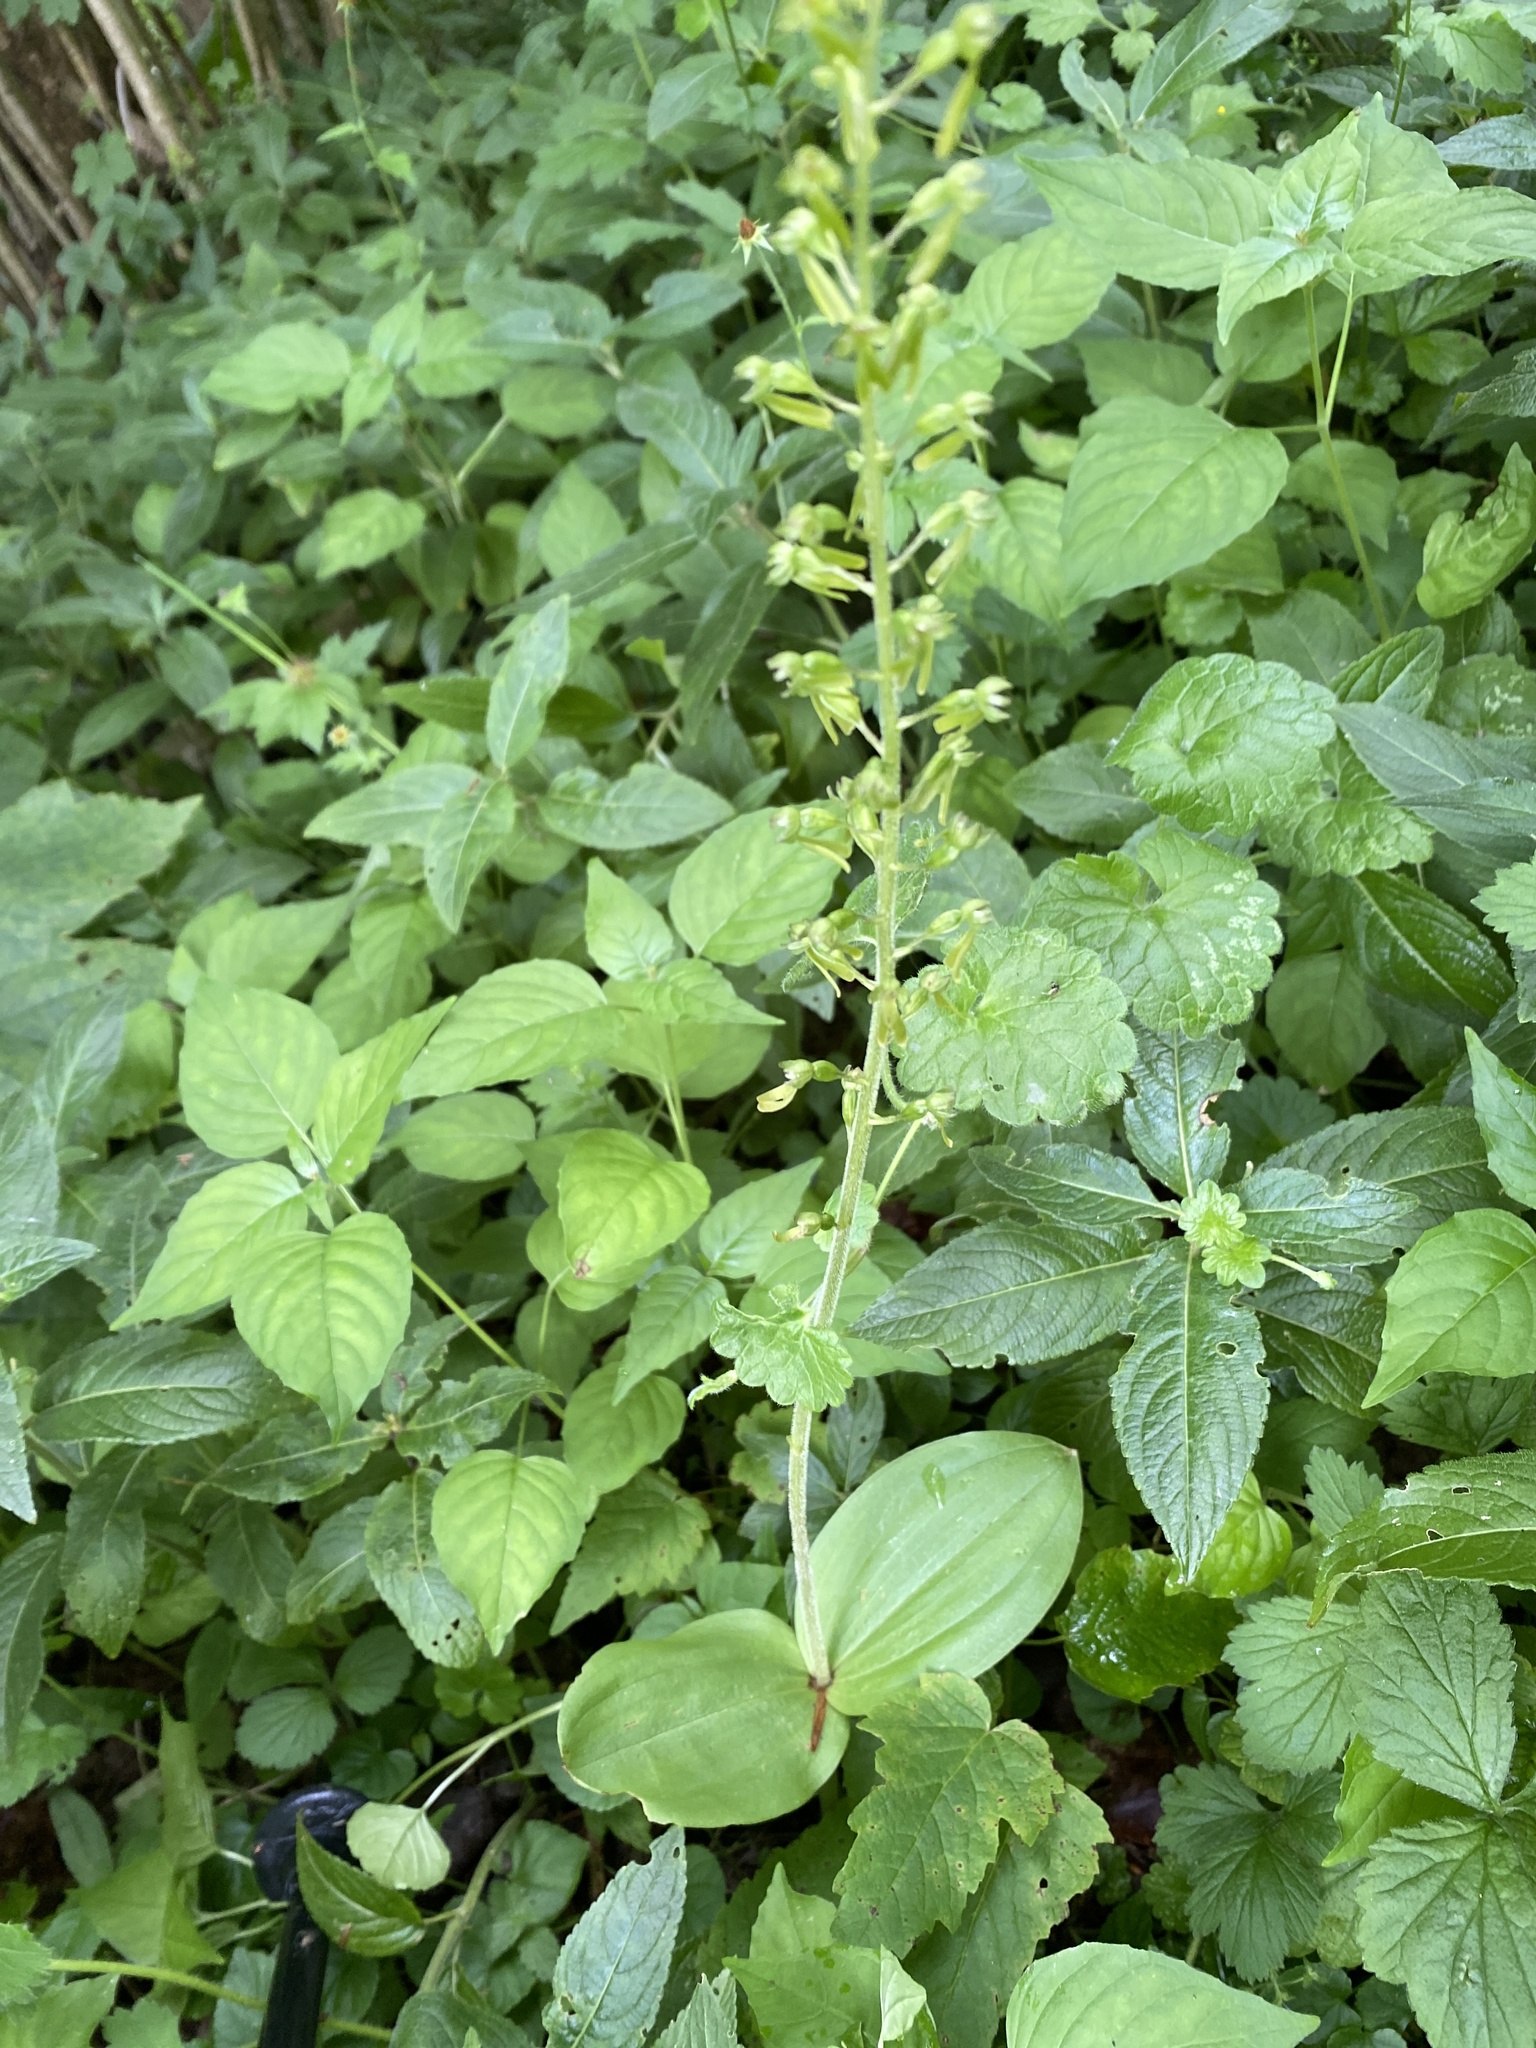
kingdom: Plantae
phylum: Tracheophyta
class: Liliopsida
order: Asparagales
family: Orchidaceae
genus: Neottia
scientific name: Neottia ovata
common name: Common twayblade
